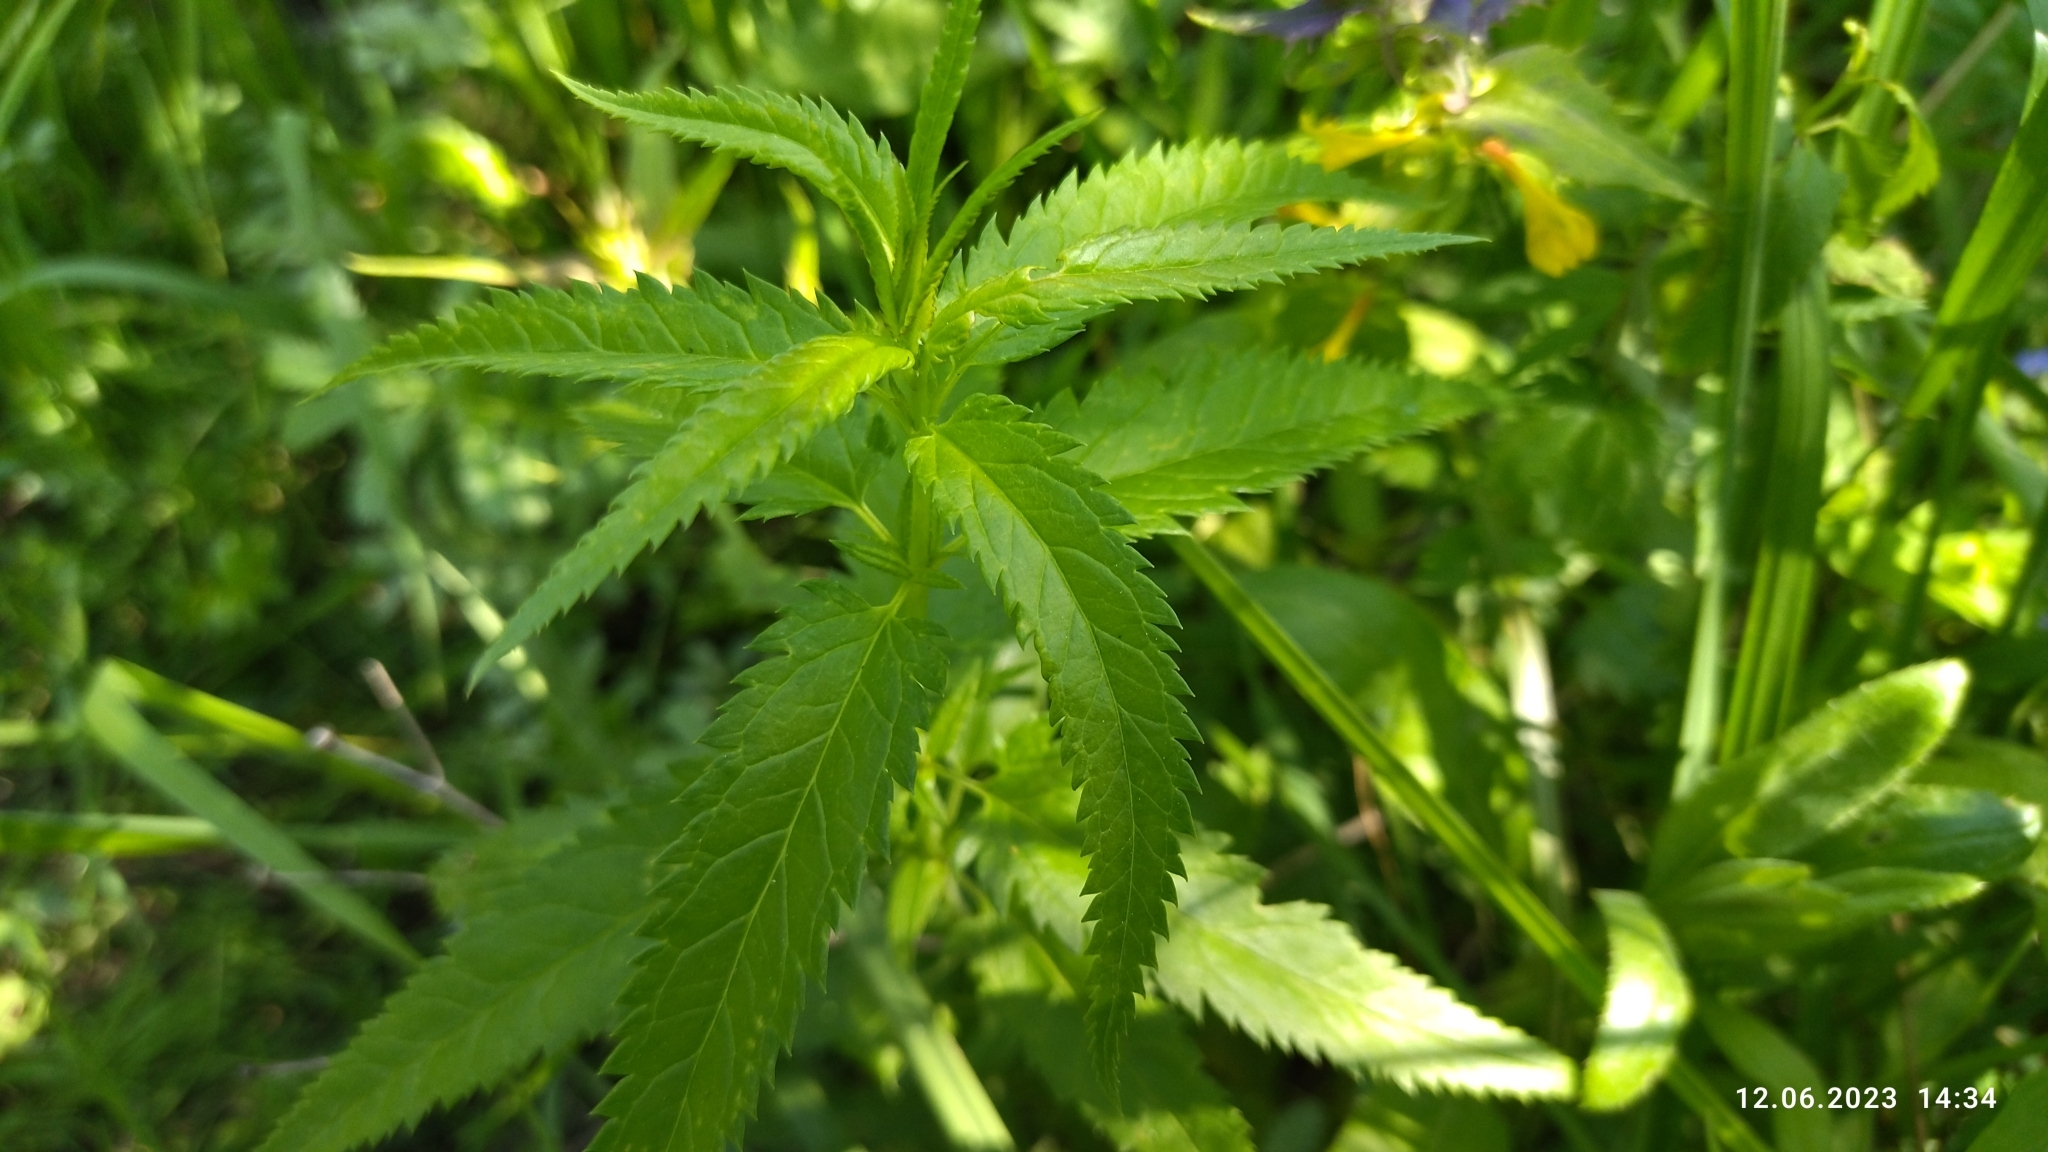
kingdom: Plantae
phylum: Tracheophyta
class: Magnoliopsida
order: Lamiales
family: Plantaginaceae
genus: Veronica
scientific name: Veronica longifolia
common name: Garden speedwell
